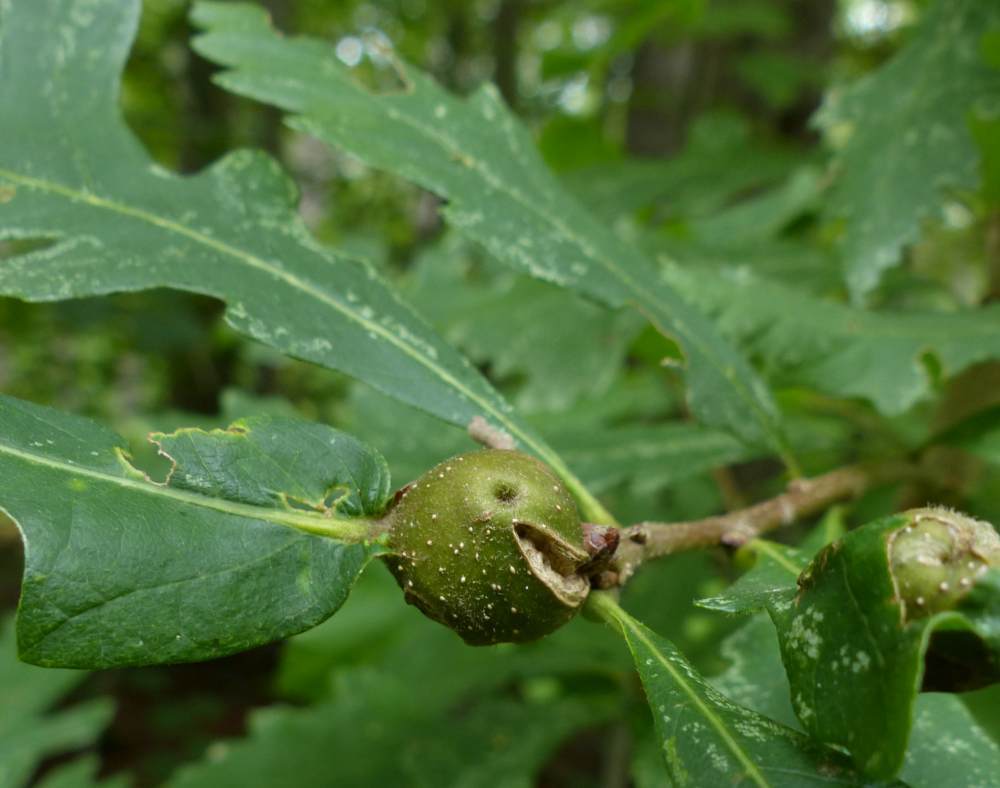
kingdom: Animalia
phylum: Arthropoda
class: Insecta
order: Hymenoptera
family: Cynipidae
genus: Andricus
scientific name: Andricus
